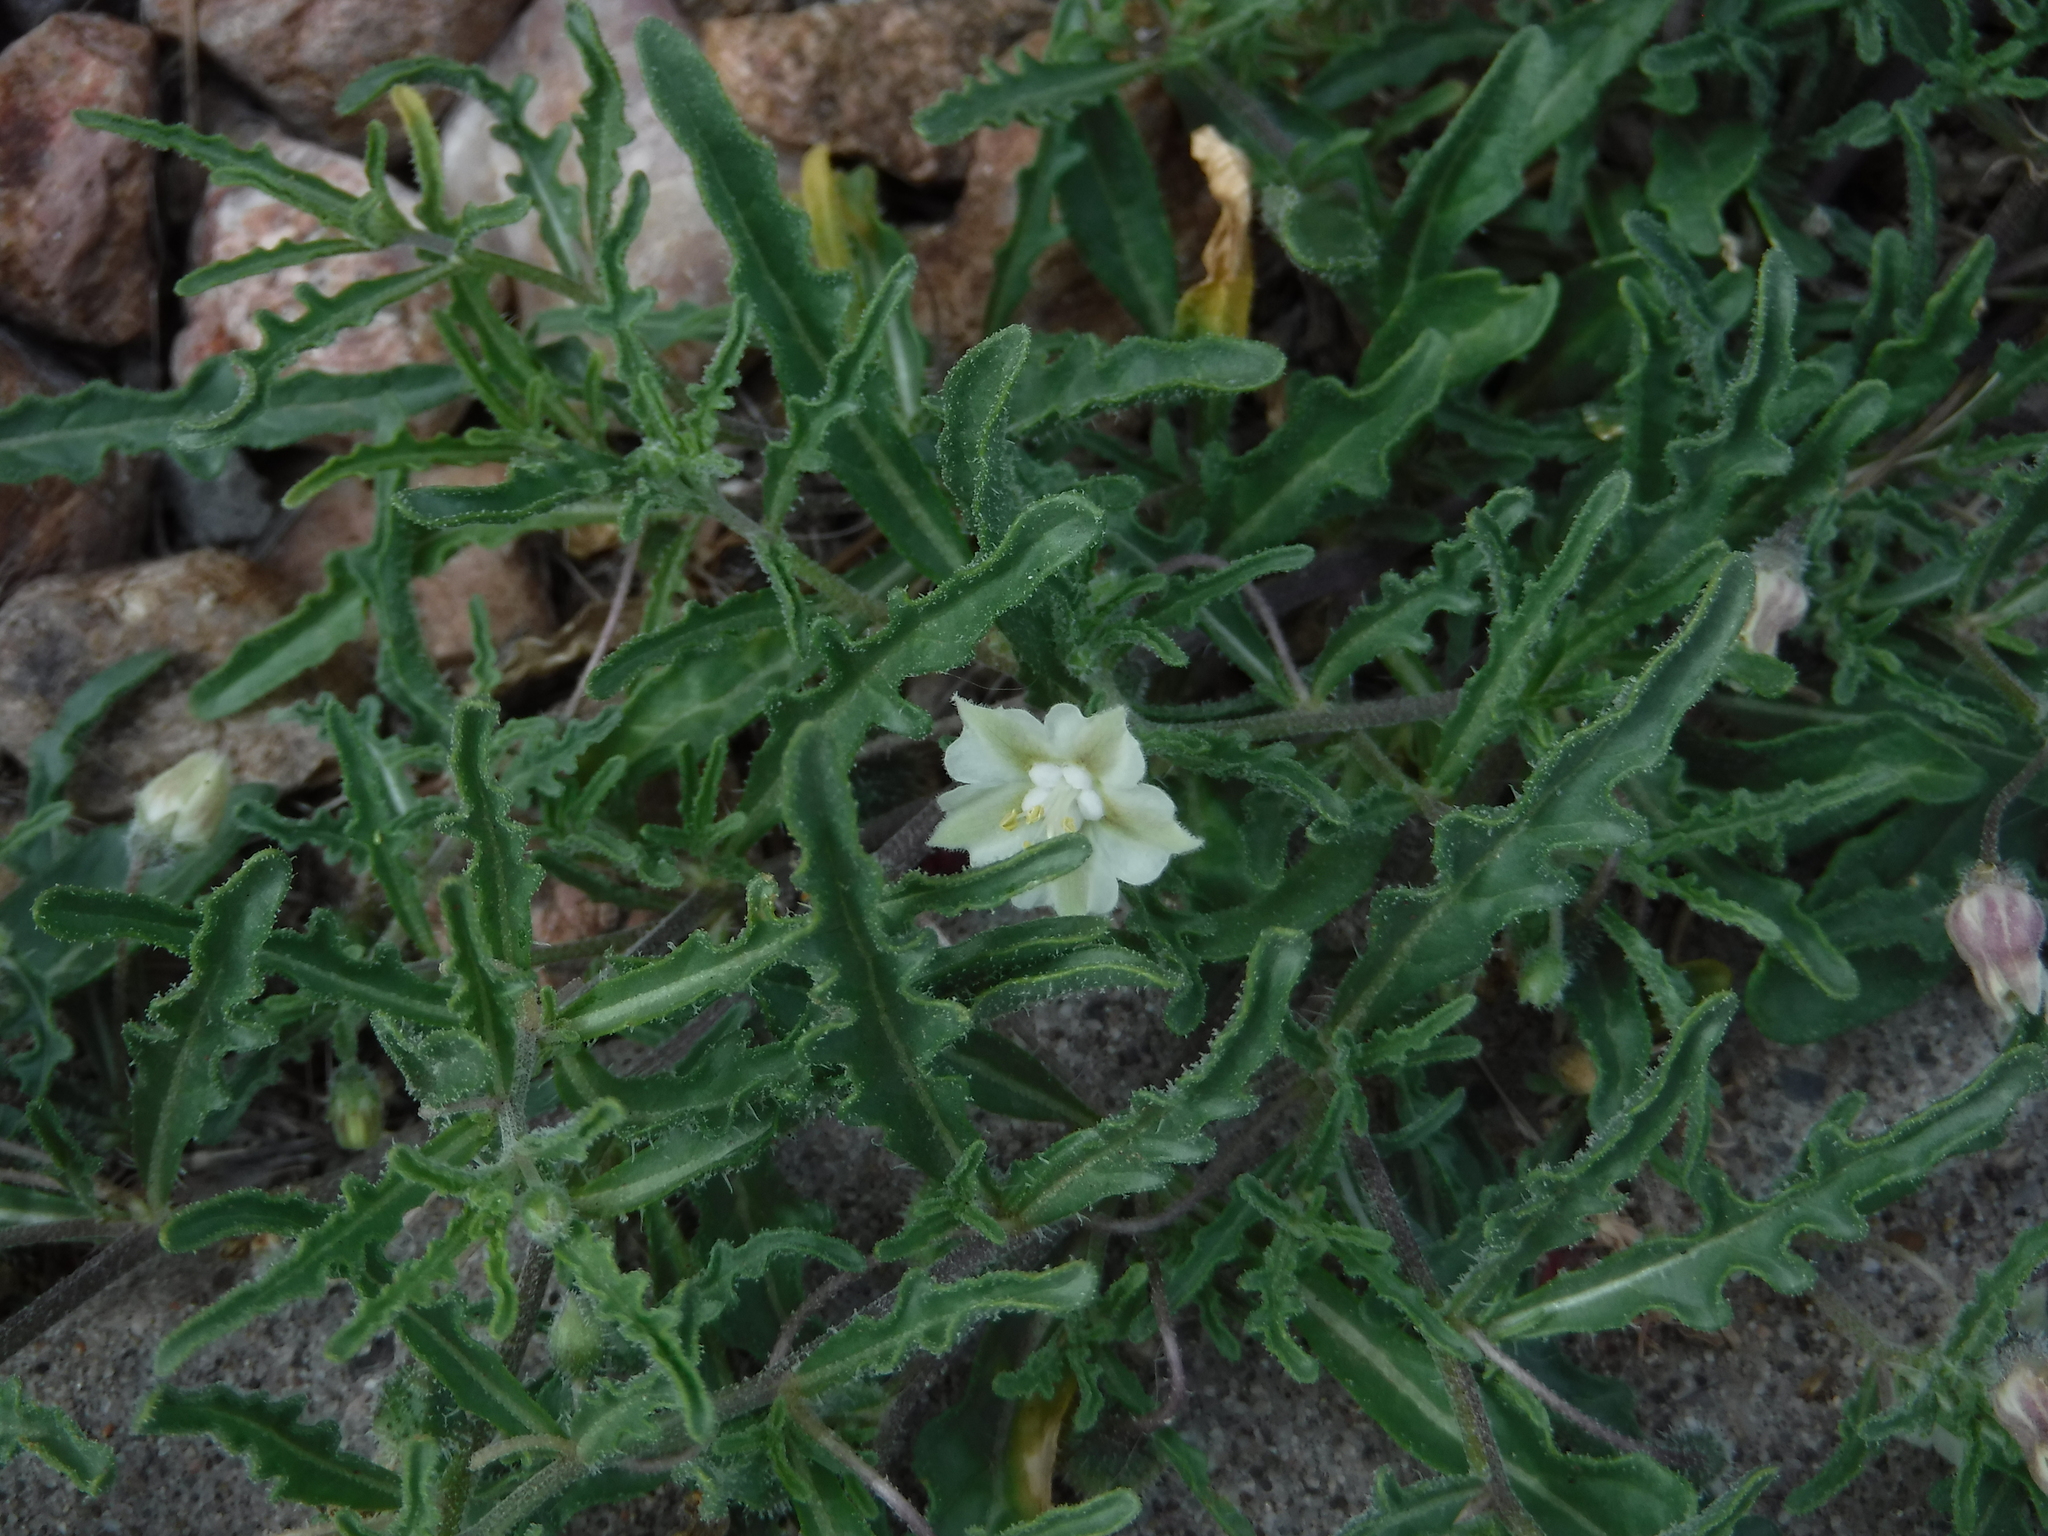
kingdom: Plantae
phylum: Tracheophyta
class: Magnoliopsida
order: Solanales
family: Solanaceae
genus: Chamaesaracha
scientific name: Chamaesaracha coronopus
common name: Smooth chamaesaracha
